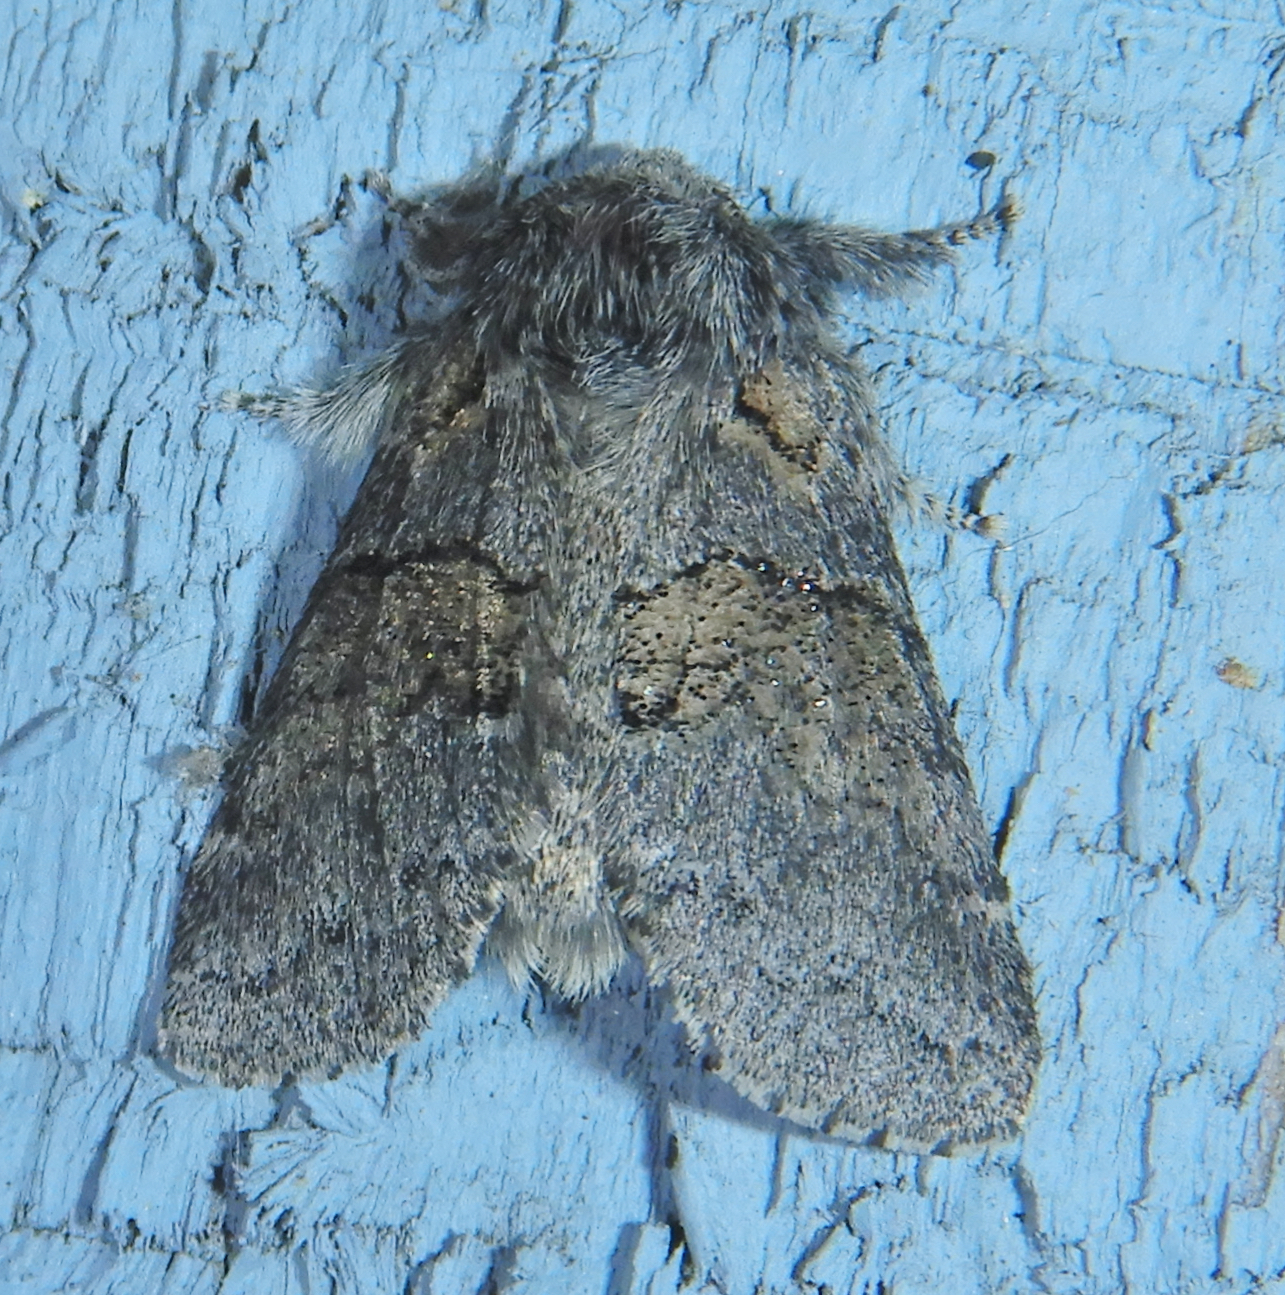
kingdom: Animalia
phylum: Arthropoda
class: Insecta
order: Lepidoptera
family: Notodontidae
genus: Gluphisia
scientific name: Gluphisia septentrionis
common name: Common gluphisia
